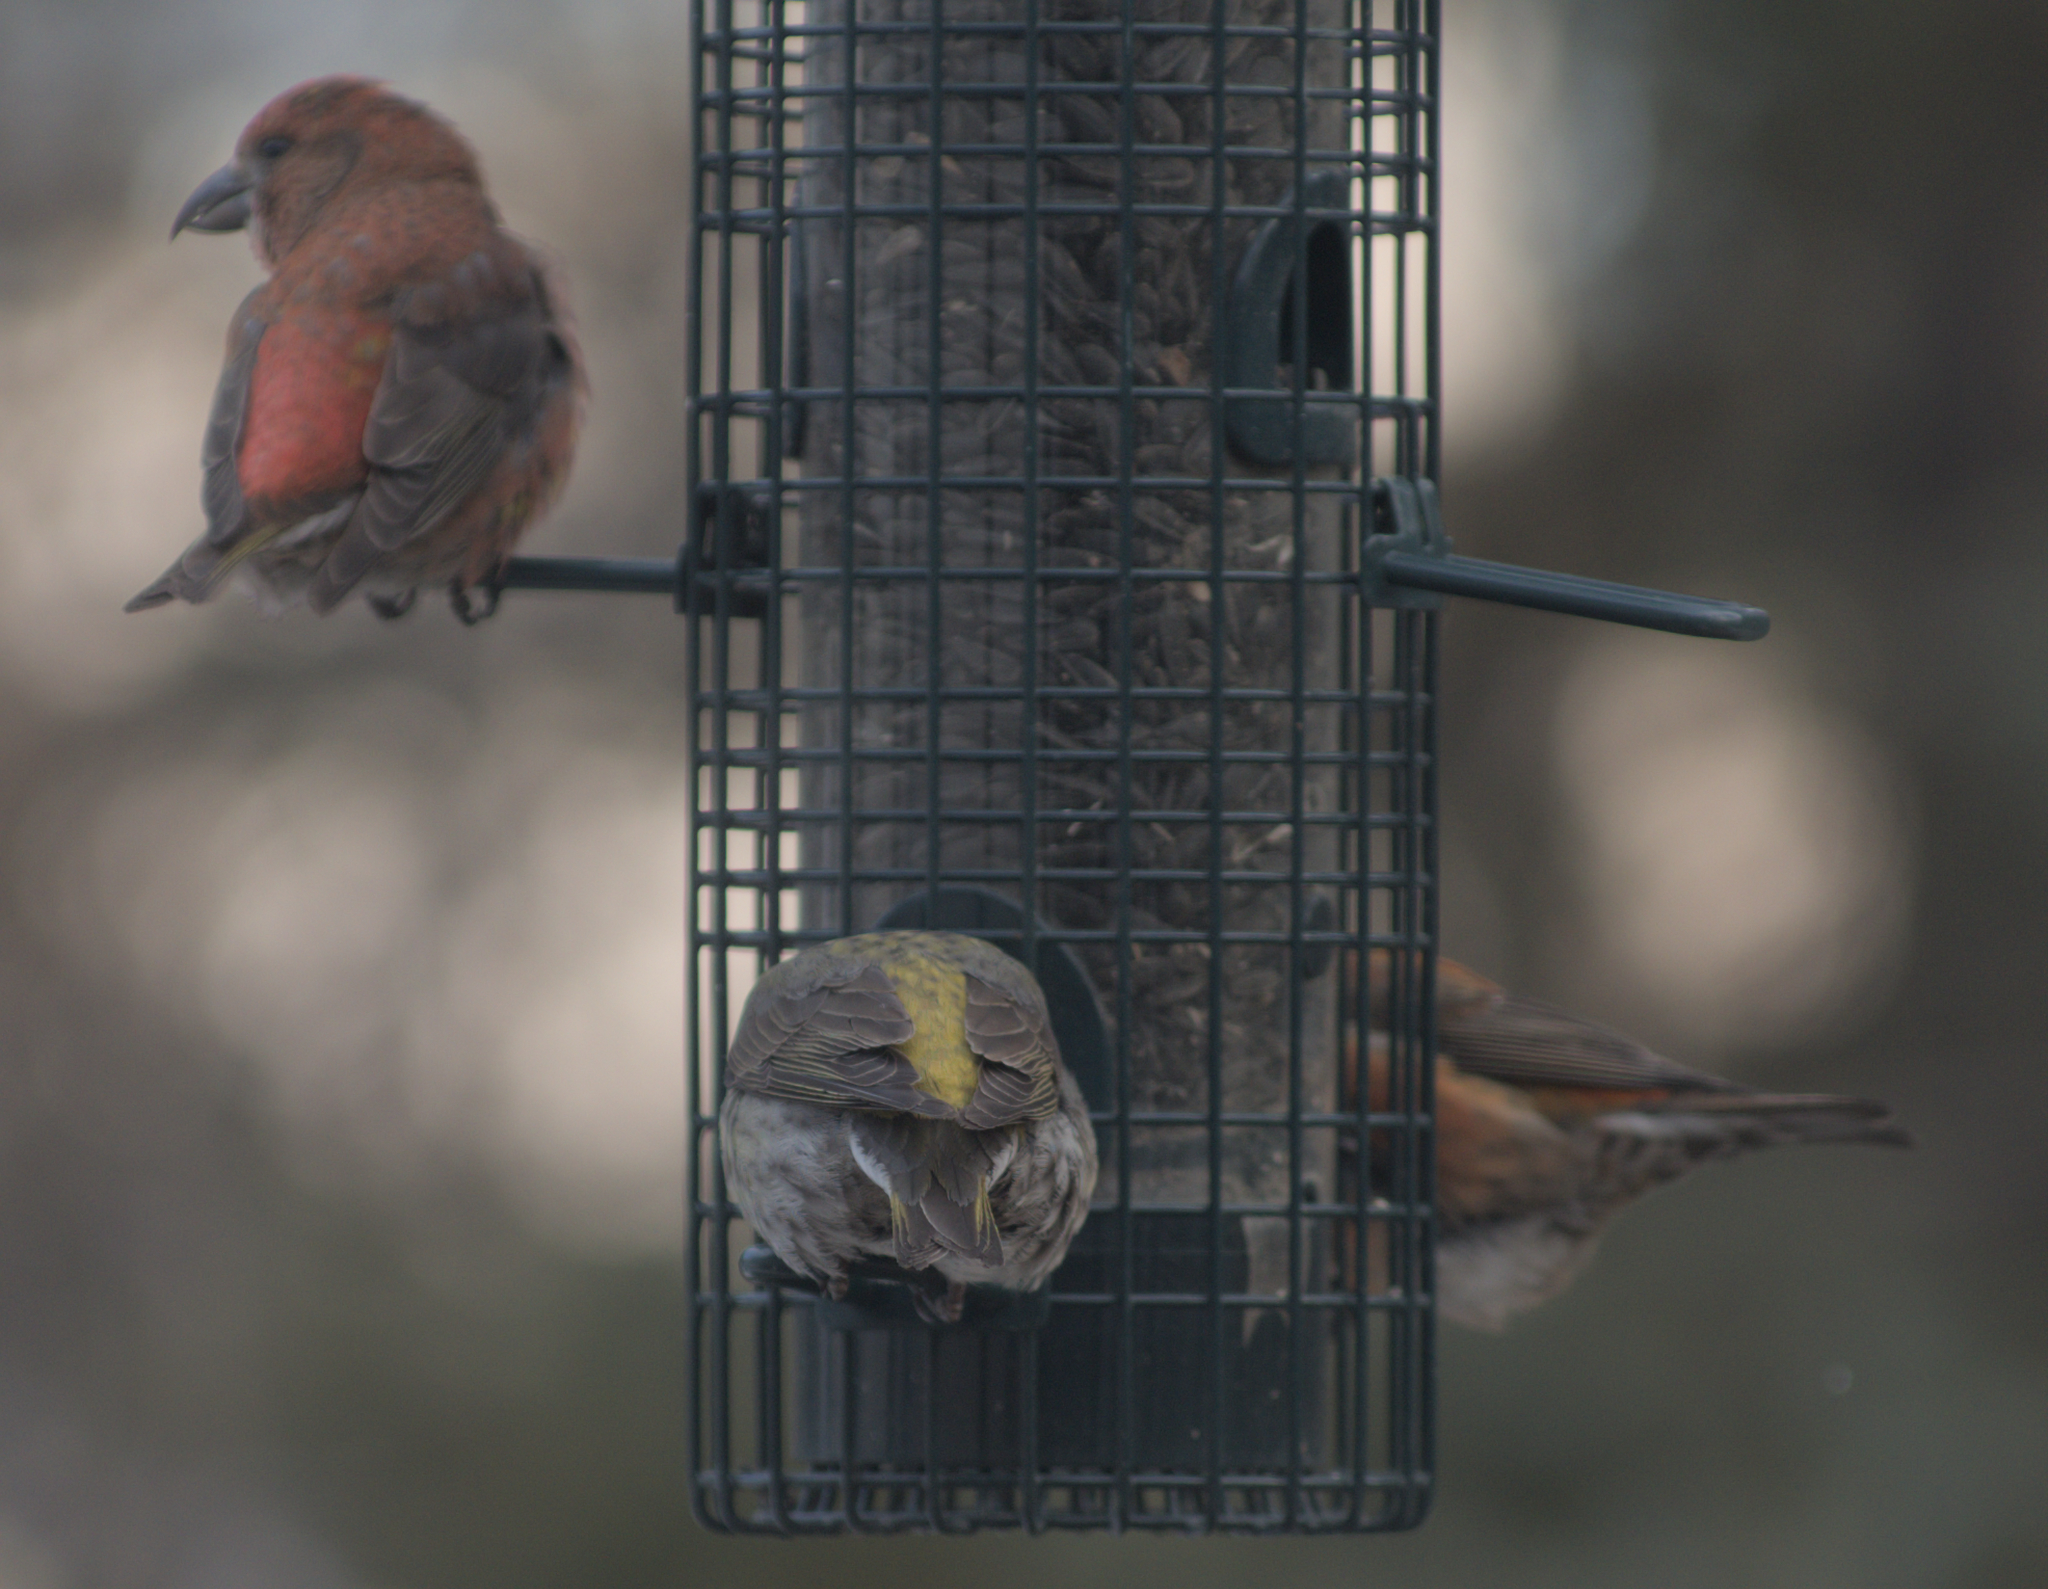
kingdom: Animalia
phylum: Chordata
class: Aves
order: Passeriformes
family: Fringillidae
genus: Loxia
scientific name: Loxia curvirostra
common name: Red crossbill
